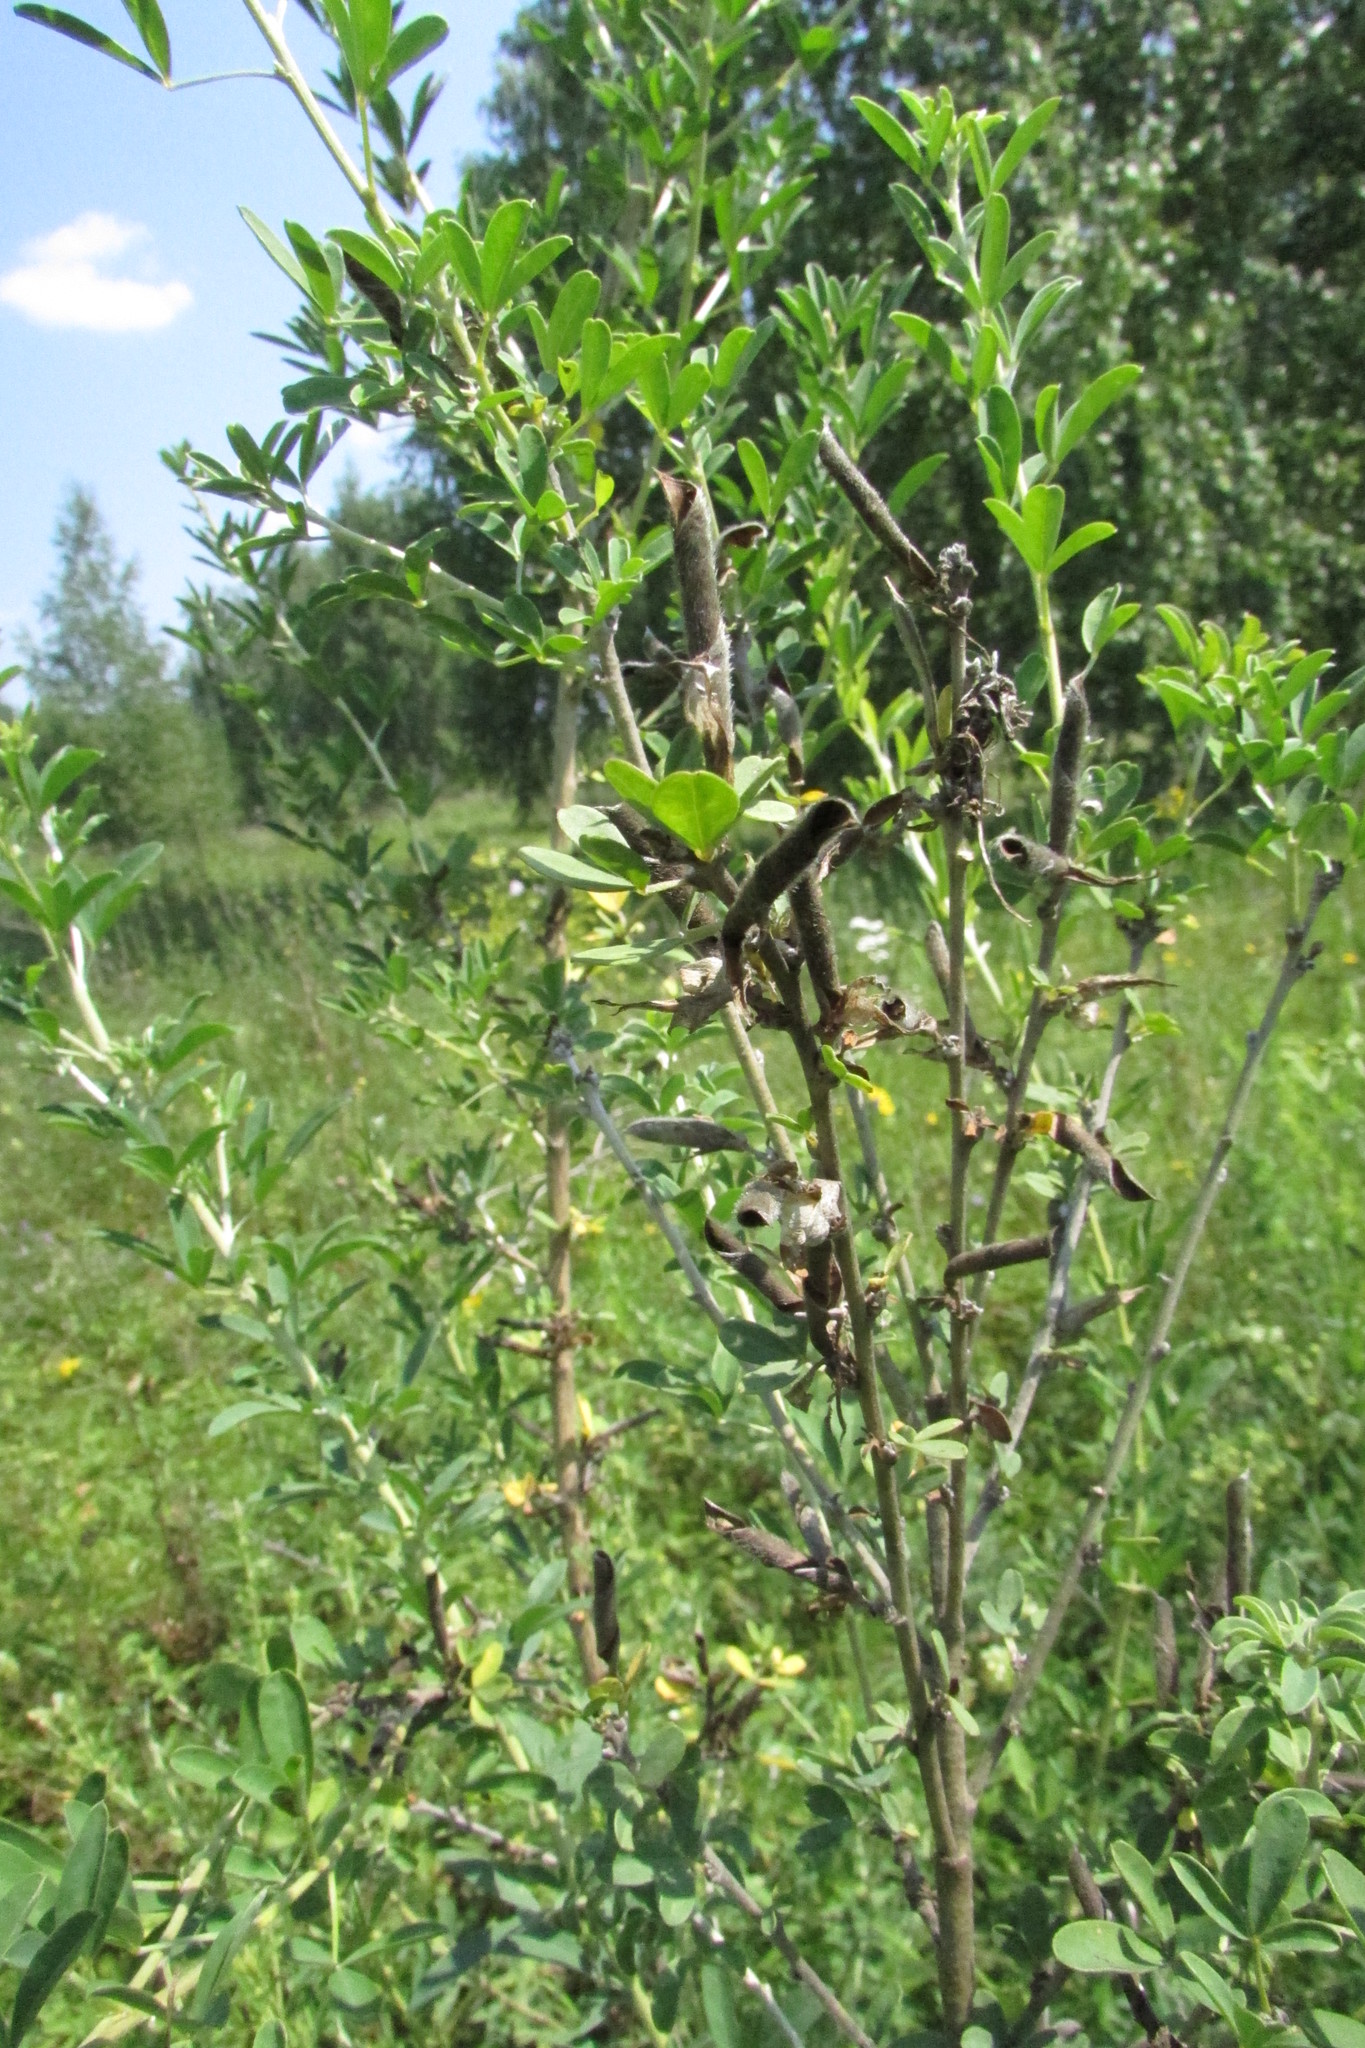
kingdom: Plantae
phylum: Tracheophyta
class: Magnoliopsida
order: Fabales
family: Fabaceae
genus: Chamaecytisus
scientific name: Chamaecytisus ruthenicus
